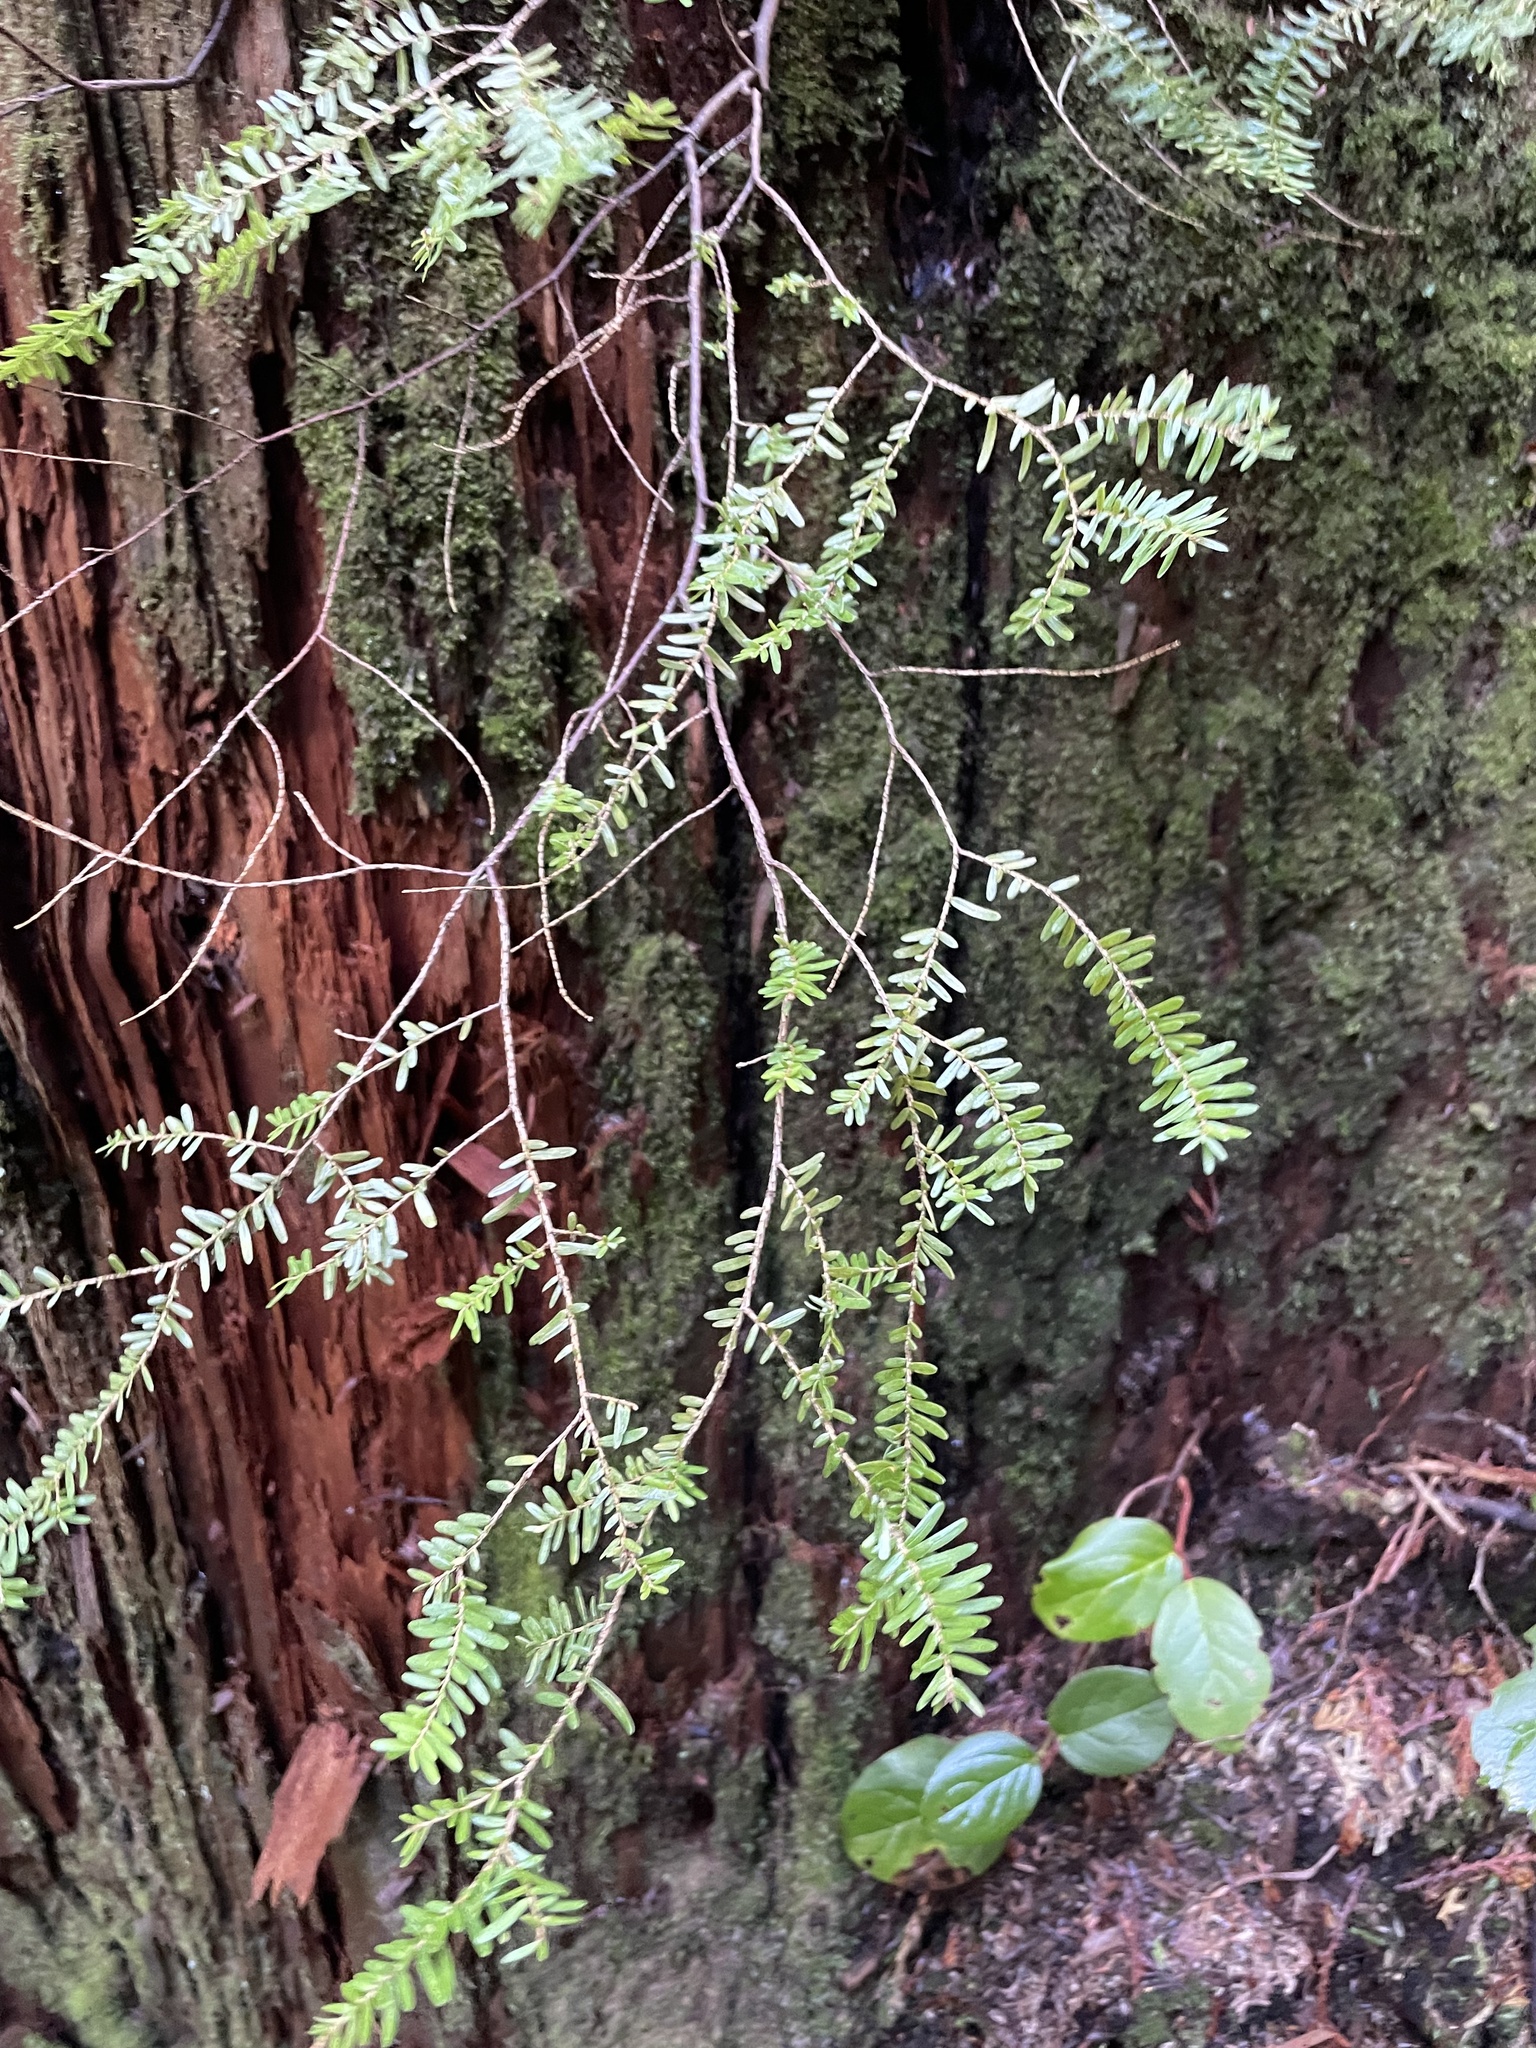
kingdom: Plantae
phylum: Tracheophyta
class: Pinopsida
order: Pinales
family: Pinaceae
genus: Tsuga
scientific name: Tsuga heterophylla
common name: Western hemlock
